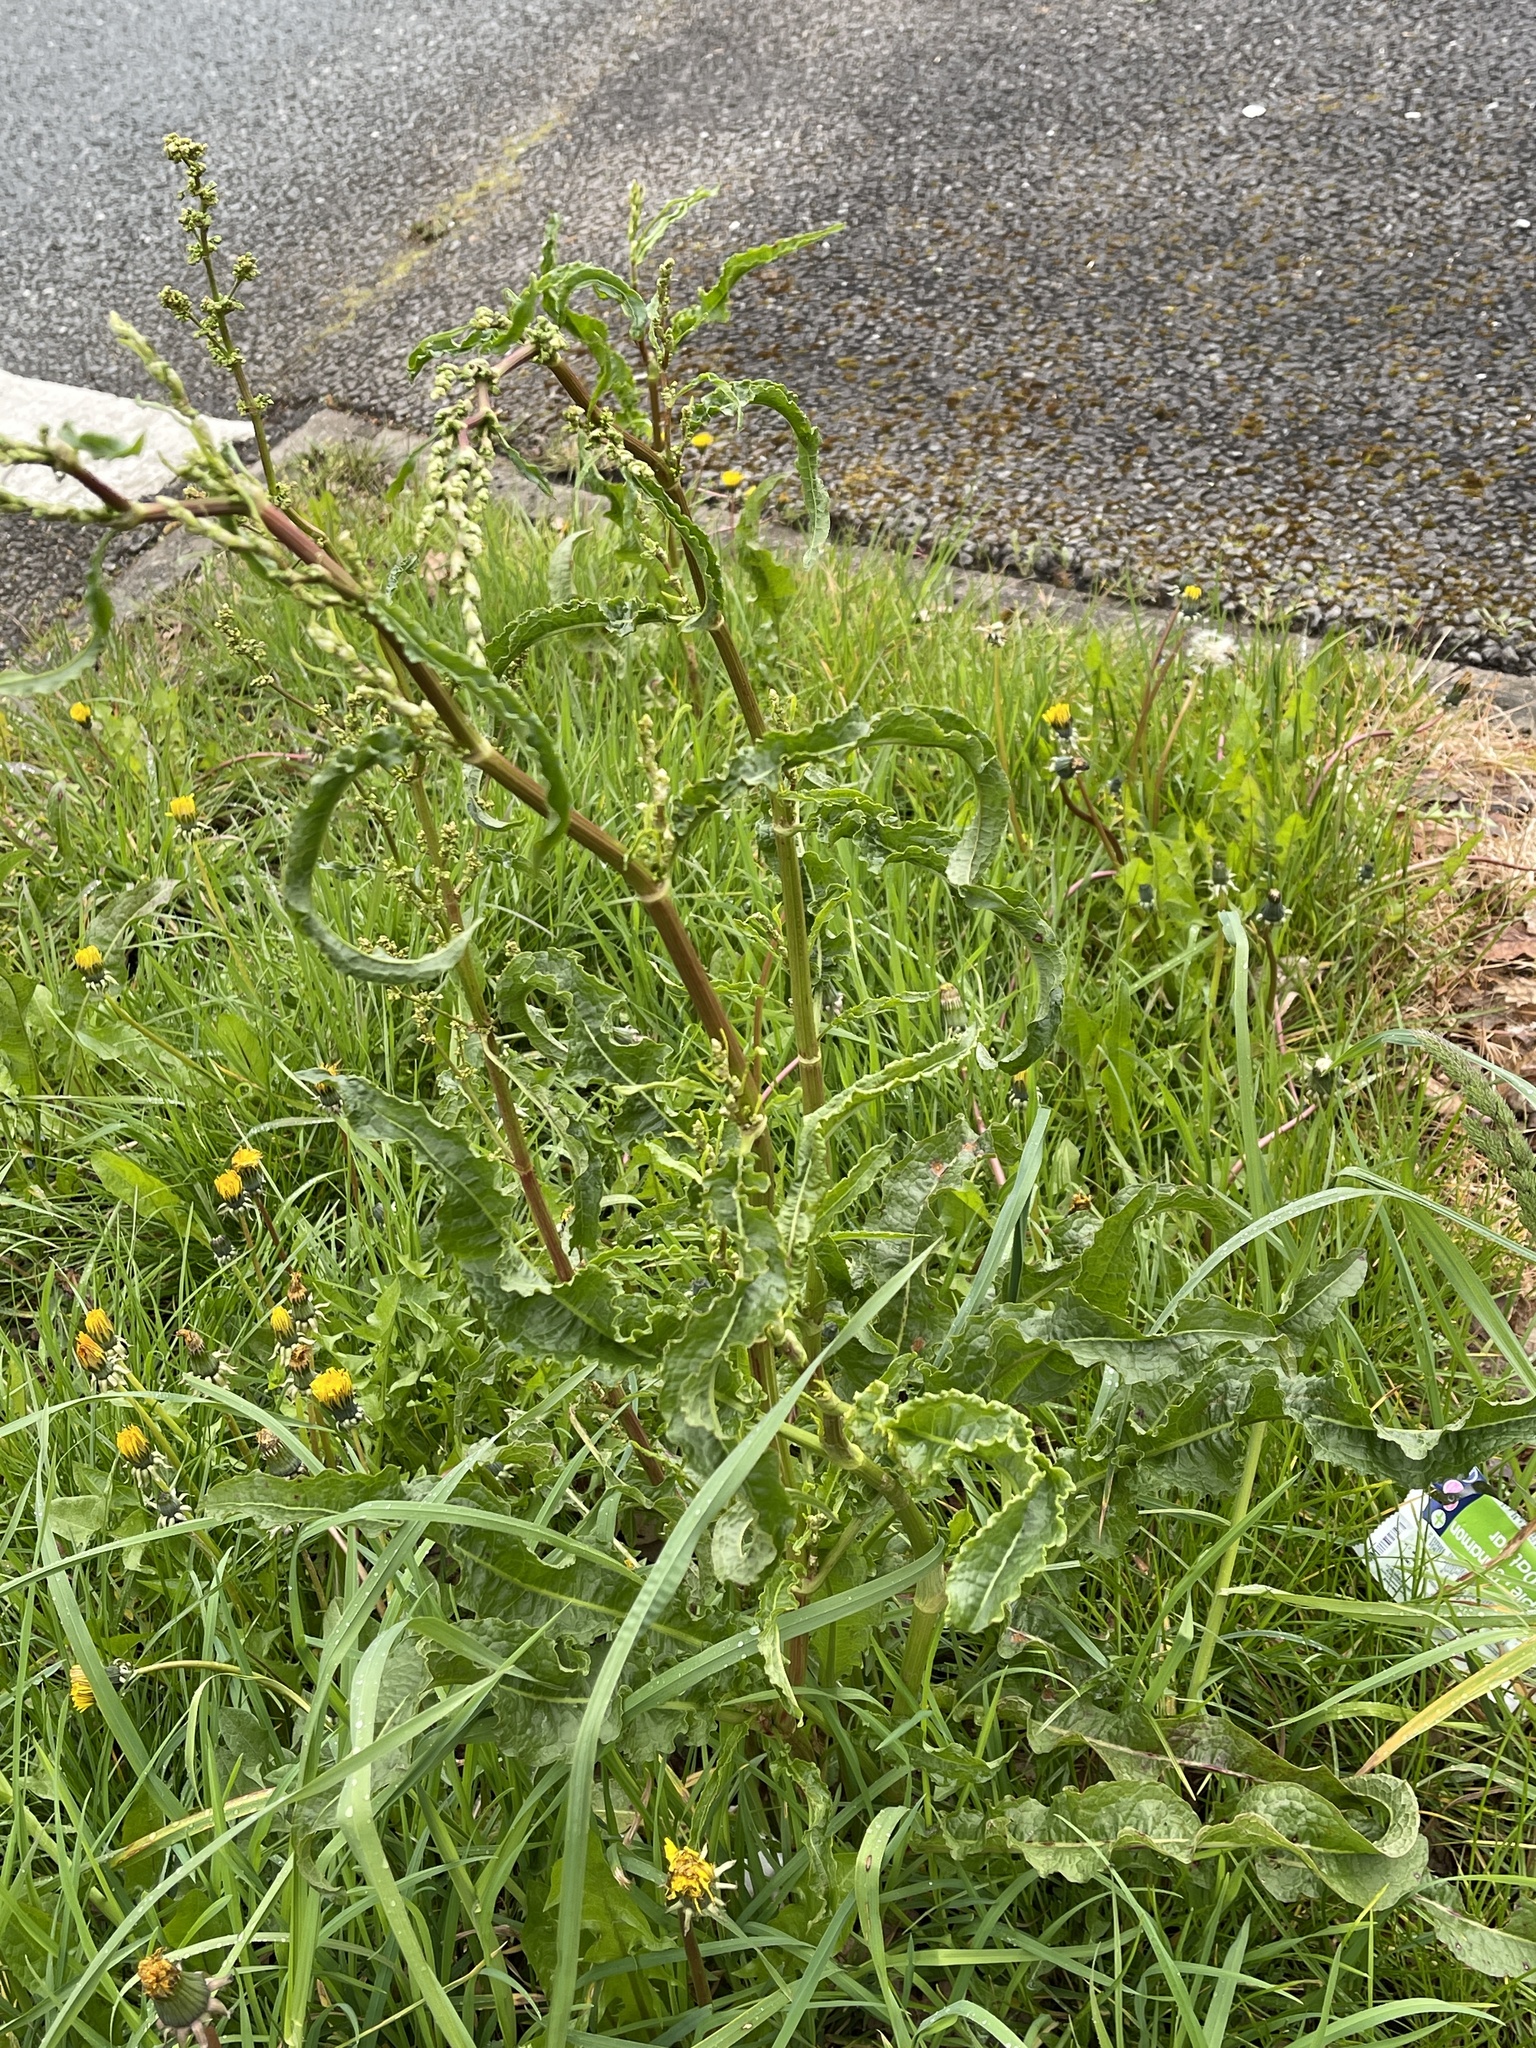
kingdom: Plantae
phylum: Tracheophyta
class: Magnoliopsida
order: Caryophyllales
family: Polygonaceae
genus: Rumex
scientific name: Rumex crispus
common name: Curled dock
